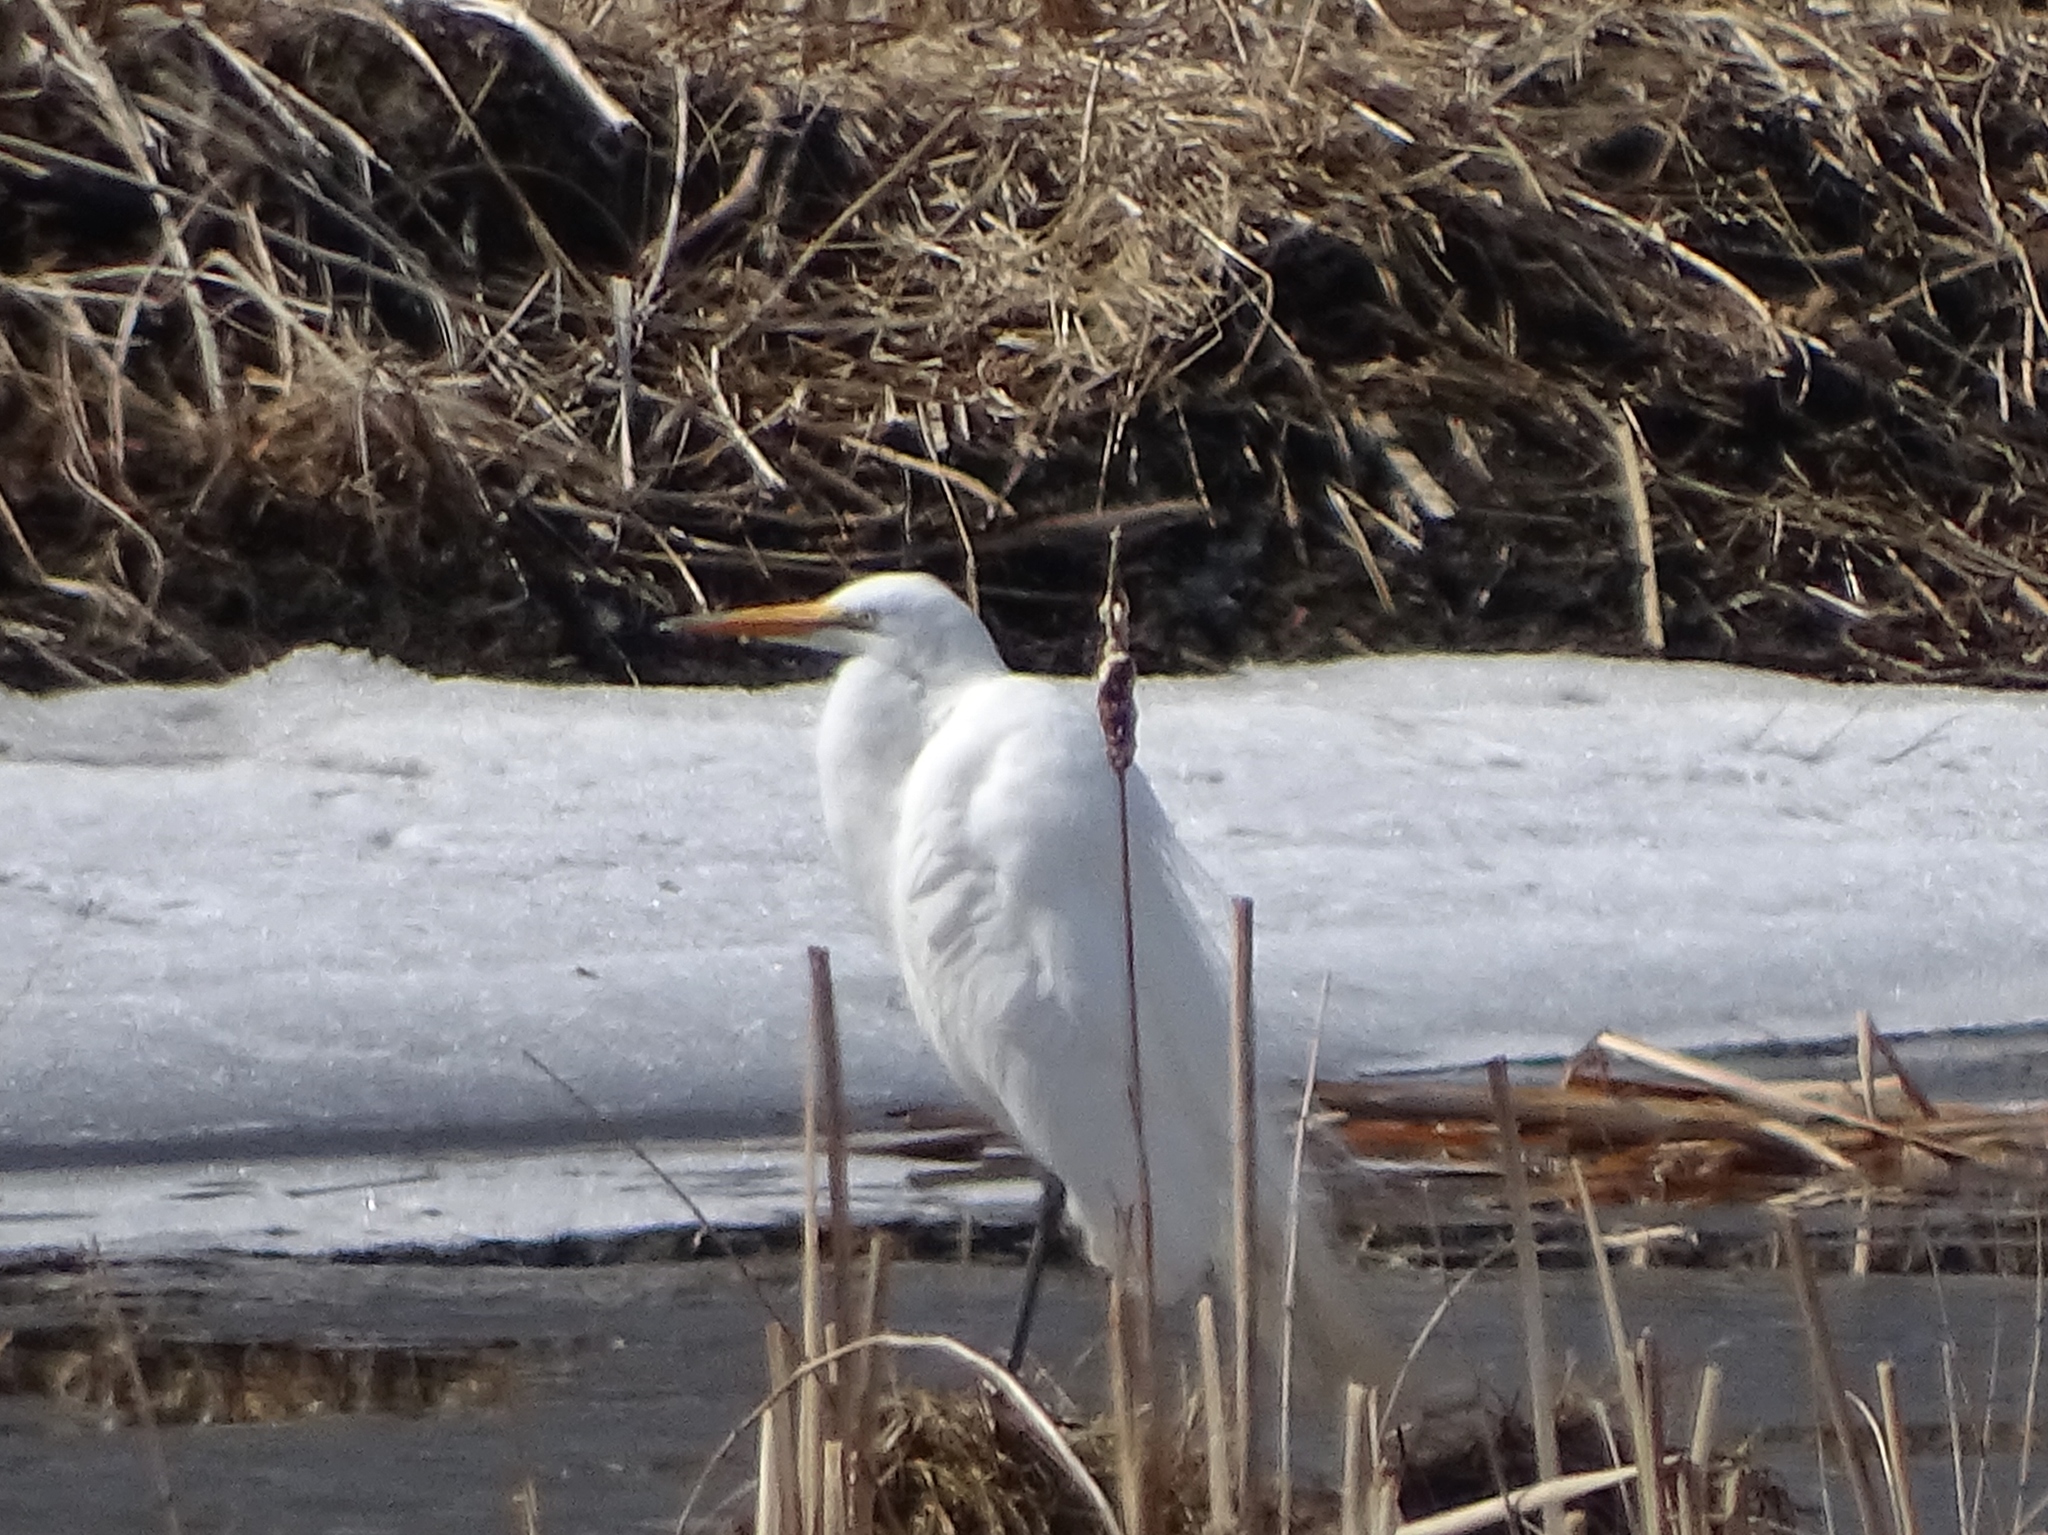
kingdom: Animalia
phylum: Chordata
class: Aves
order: Pelecaniformes
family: Ardeidae
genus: Ardea
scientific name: Ardea alba
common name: Great egret
